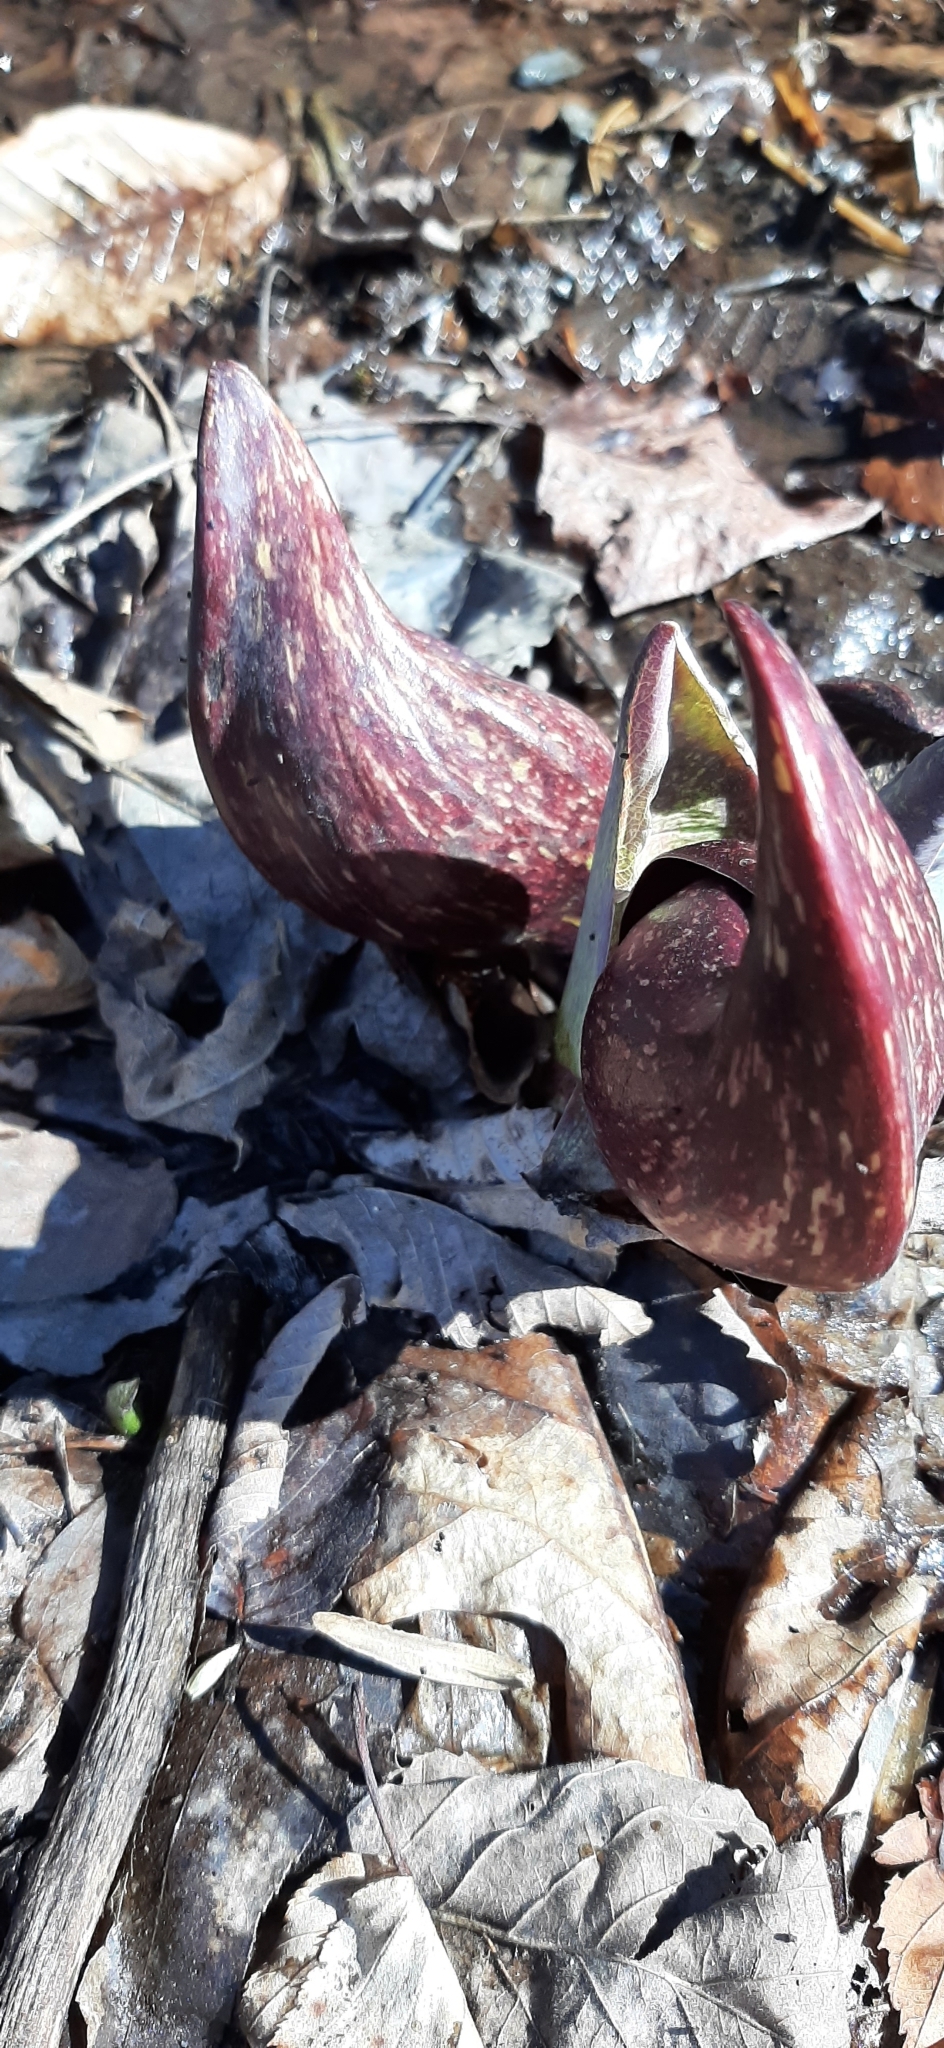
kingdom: Plantae
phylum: Tracheophyta
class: Liliopsida
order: Alismatales
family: Araceae
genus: Symplocarpus
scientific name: Symplocarpus foetidus
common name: Eastern skunk cabbage
